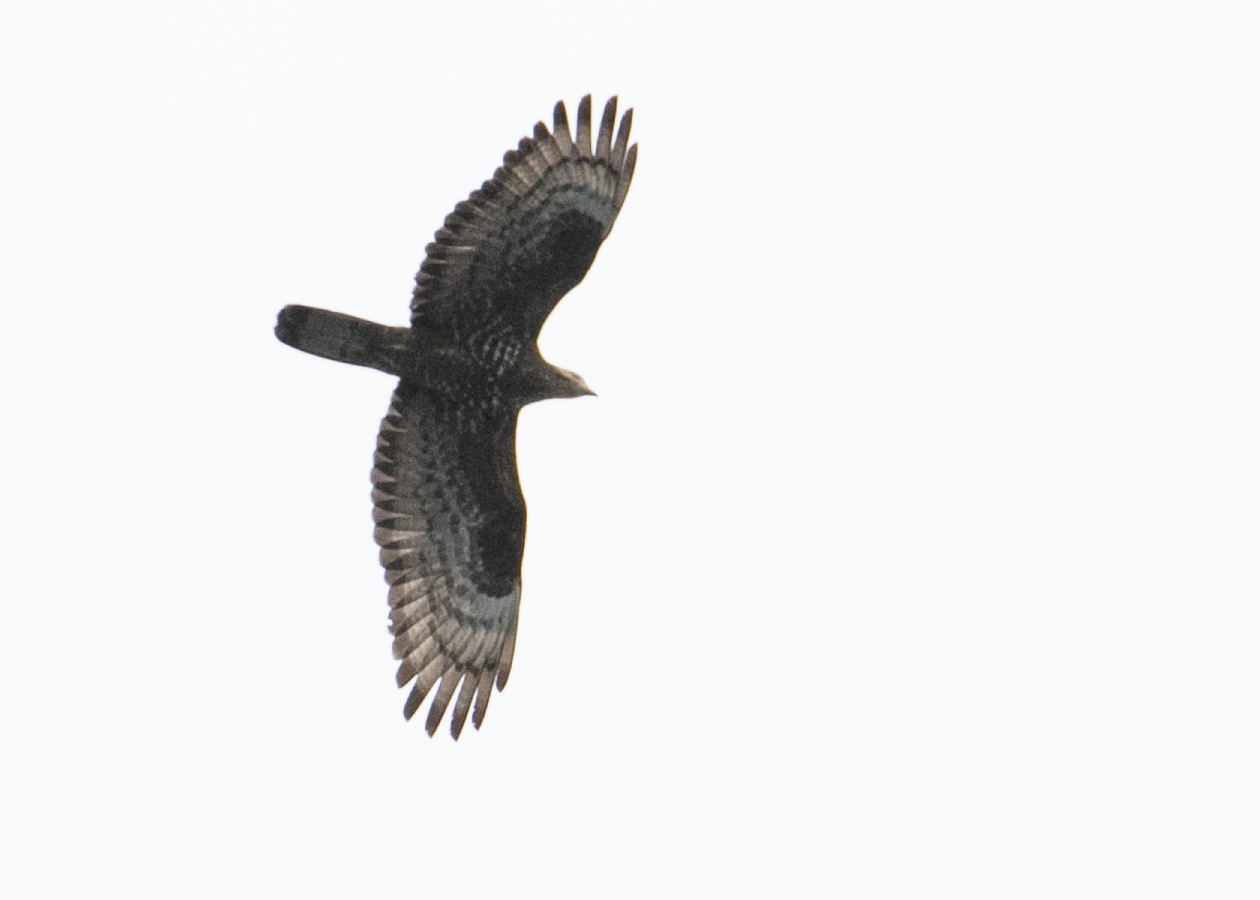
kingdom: Animalia
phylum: Chordata
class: Aves
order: Accipitriformes
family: Accipitridae
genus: Pernis
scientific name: Pernis apivorus
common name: European honey buzzard
